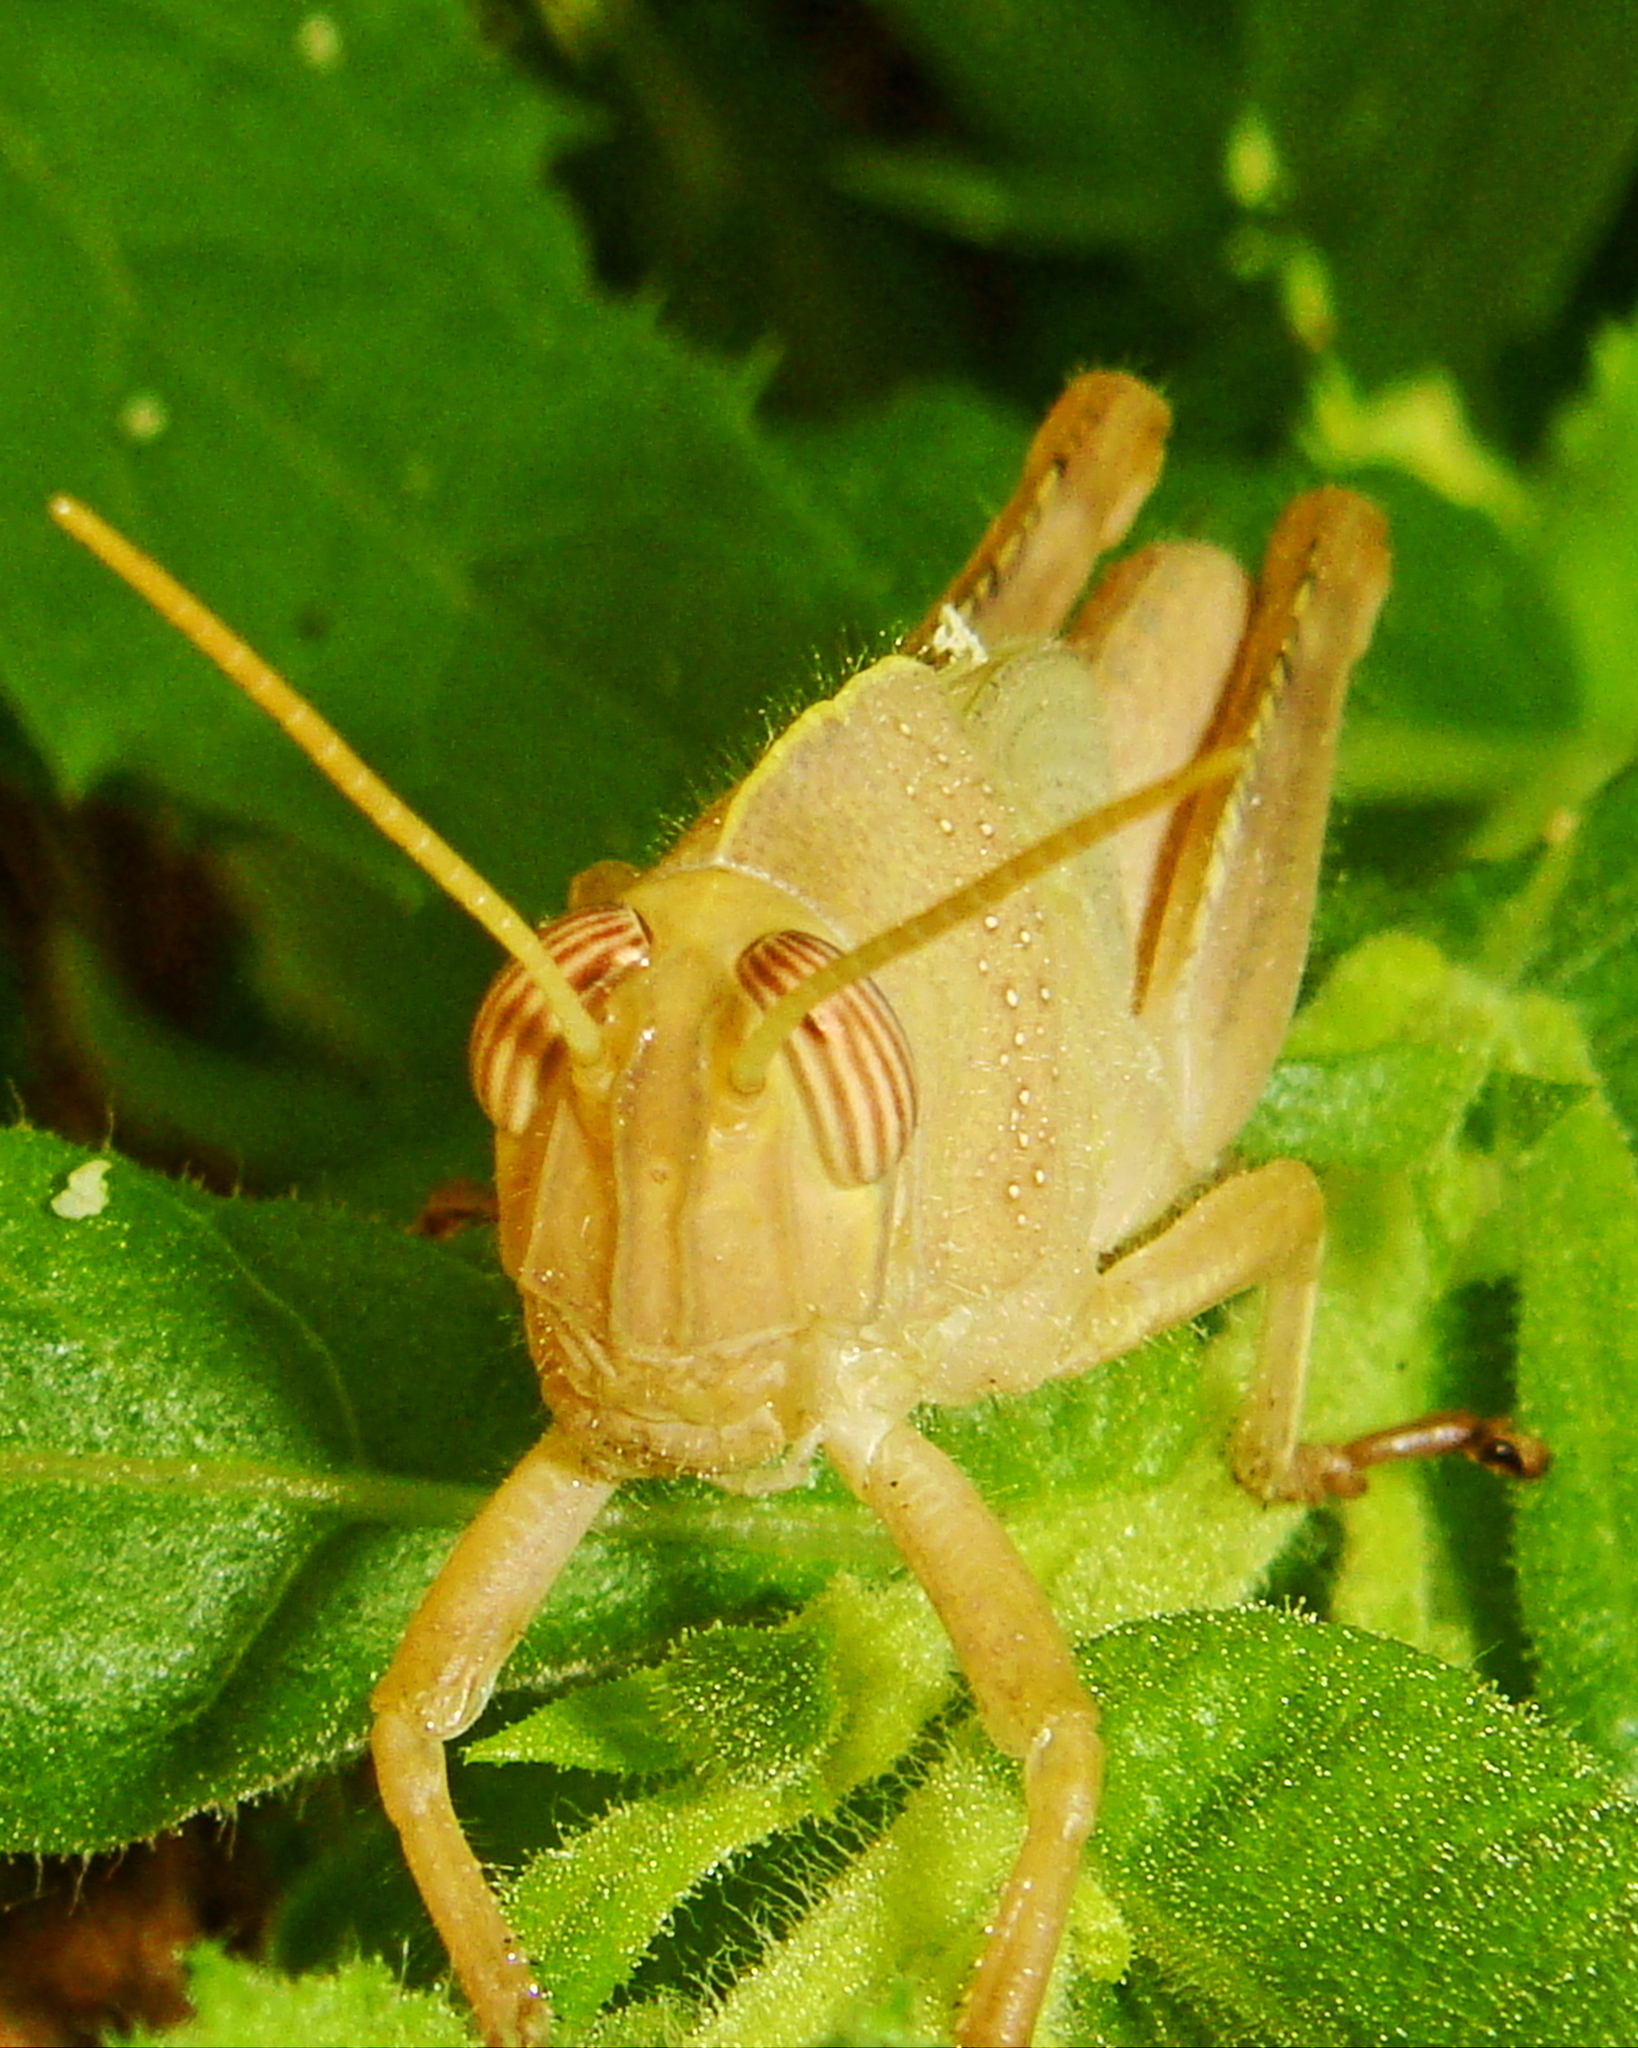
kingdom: Animalia
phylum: Arthropoda
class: Insecta
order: Orthoptera
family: Acrididae
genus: Anacridium
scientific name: Anacridium aegyptium
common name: Egyptian grasshopper
